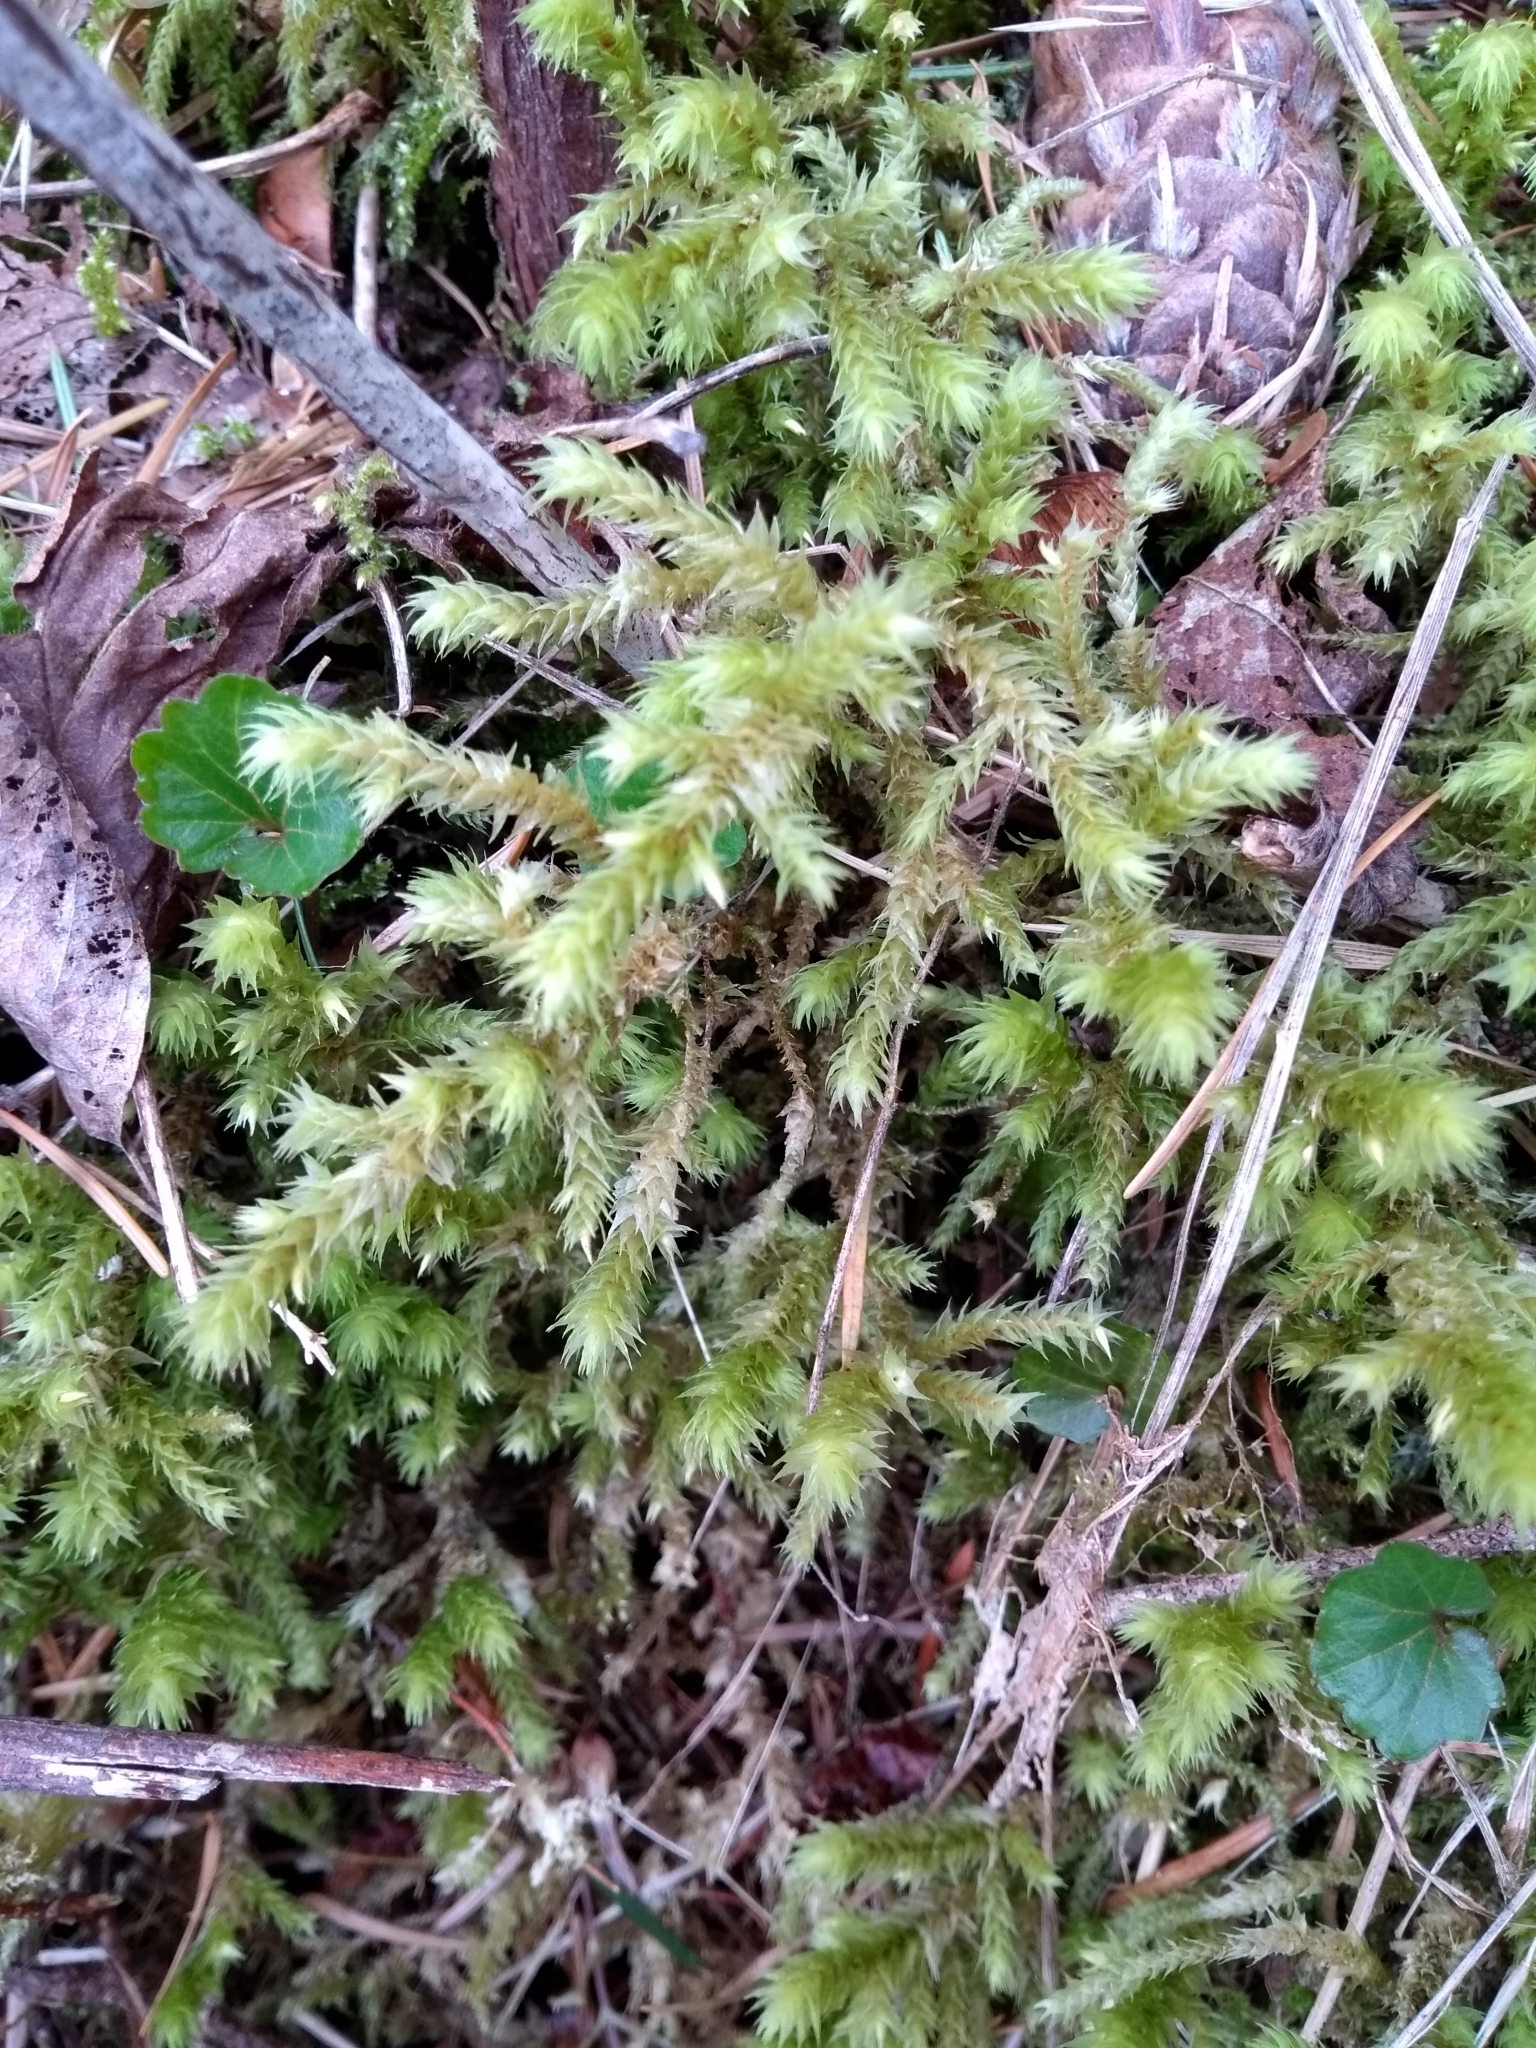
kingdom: Plantae
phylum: Bryophyta
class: Bryopsida
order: Hypnales
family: Hylocomiaceae
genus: Hylocomiadelphus
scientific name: Hylocomiadelphus triquetrus
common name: Rough goose neck moss
